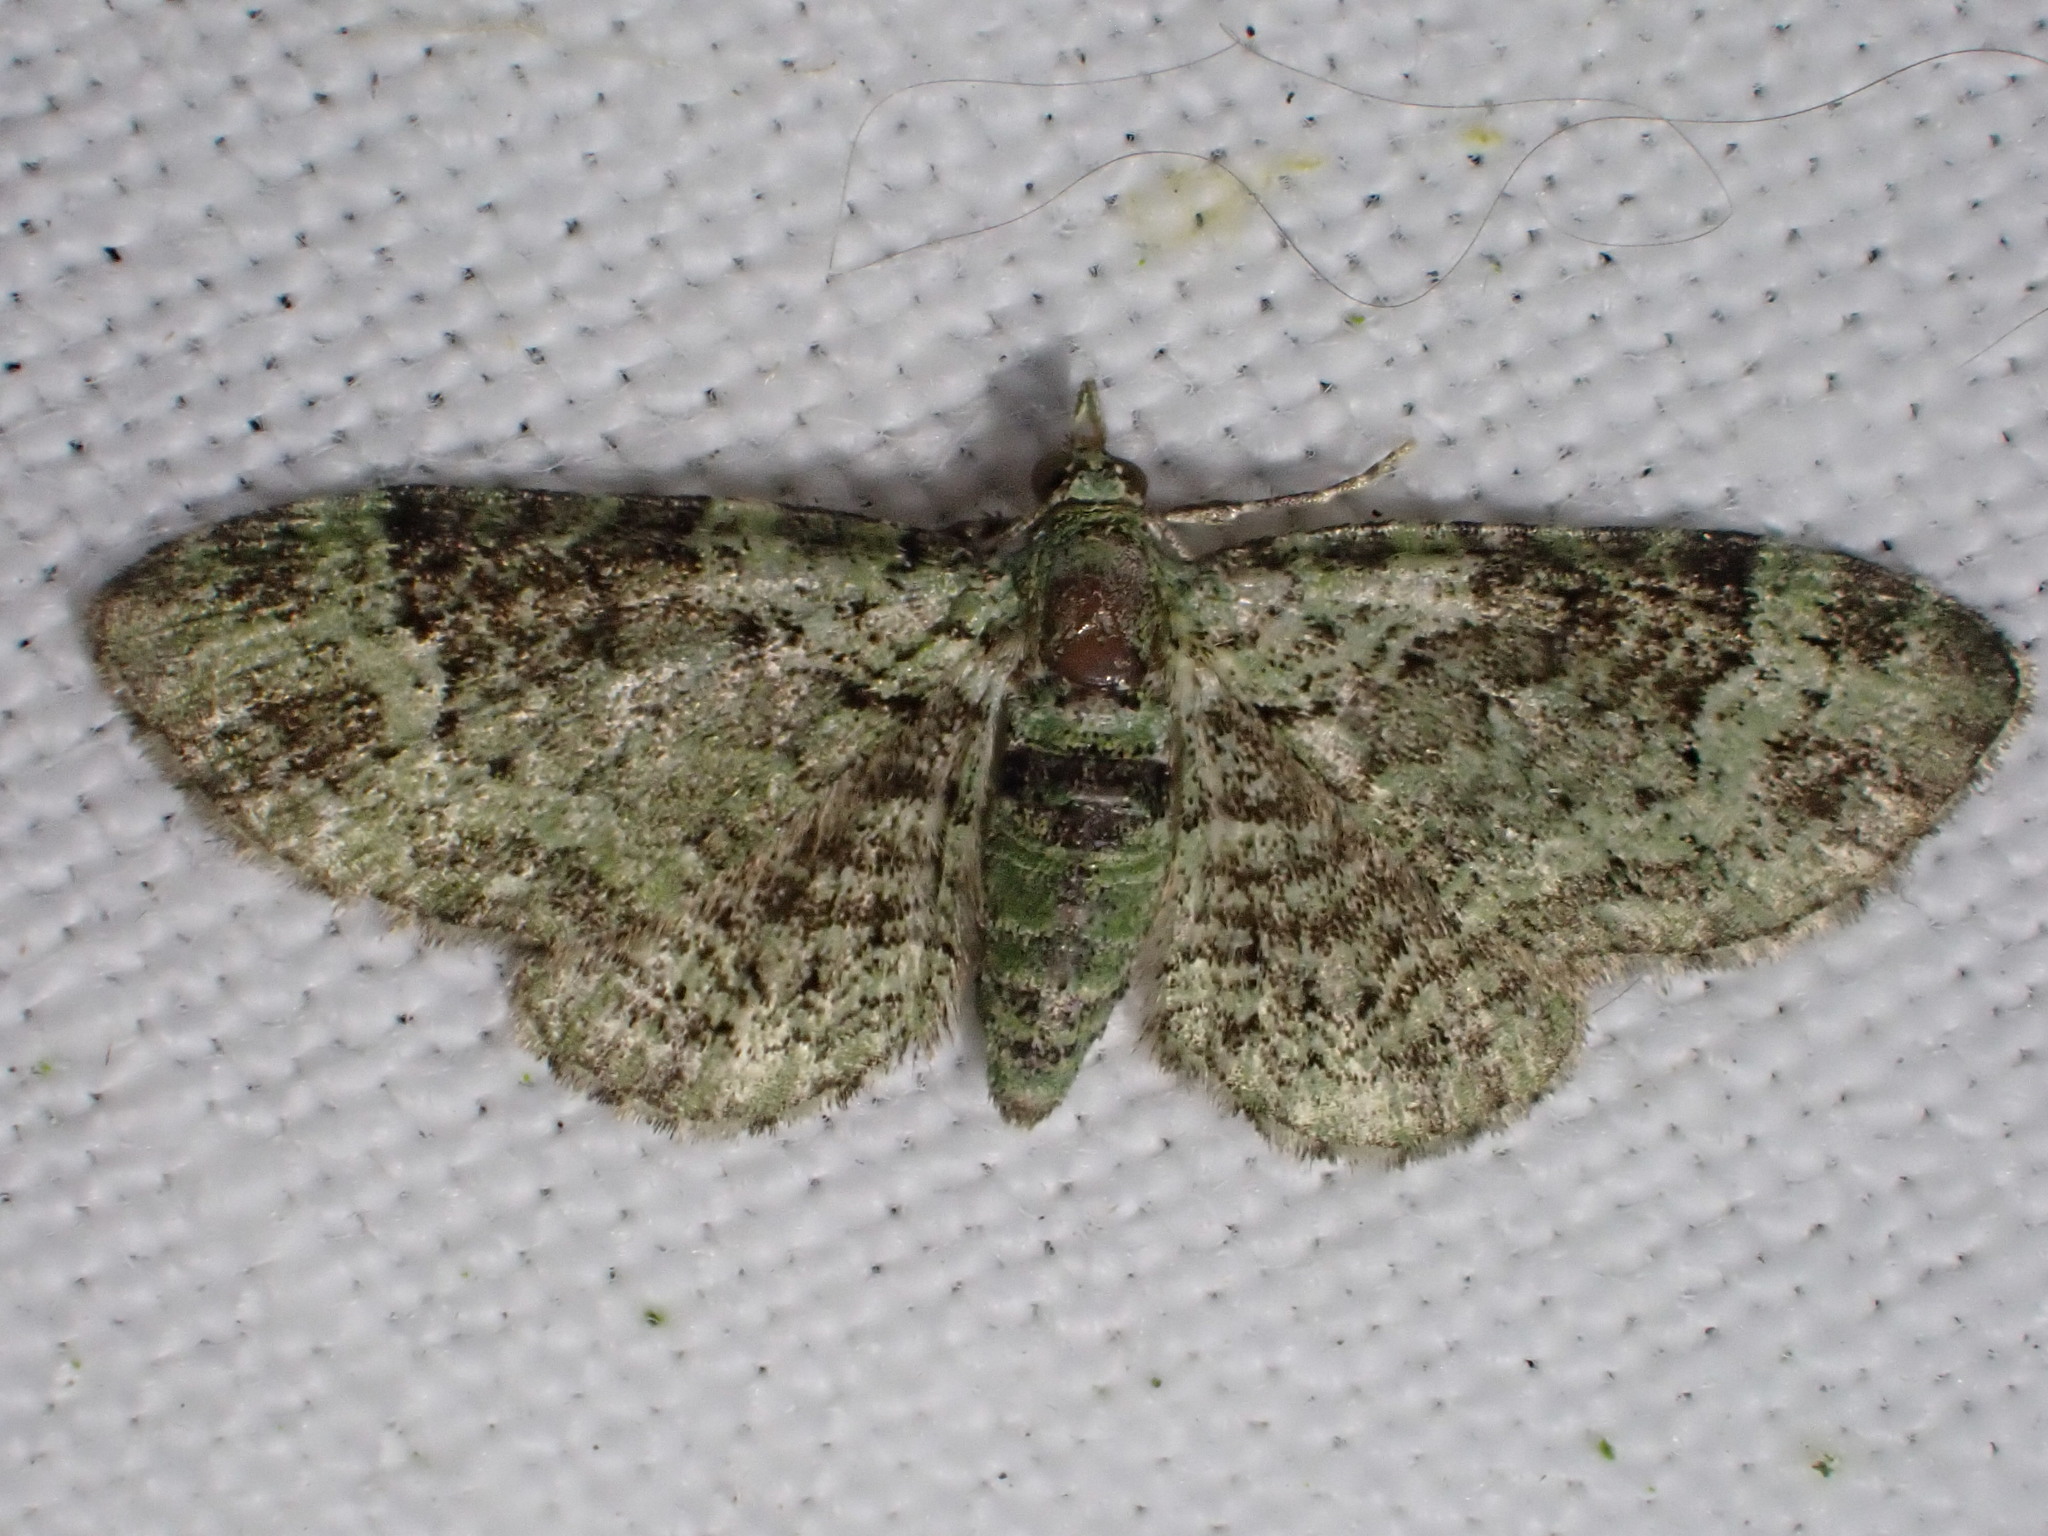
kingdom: Animalia
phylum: Arthropoda
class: Insecta
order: Lepidoptera
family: Geometridae
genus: Pasiphila
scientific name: Pasiphila rectangulata
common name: Green pug
